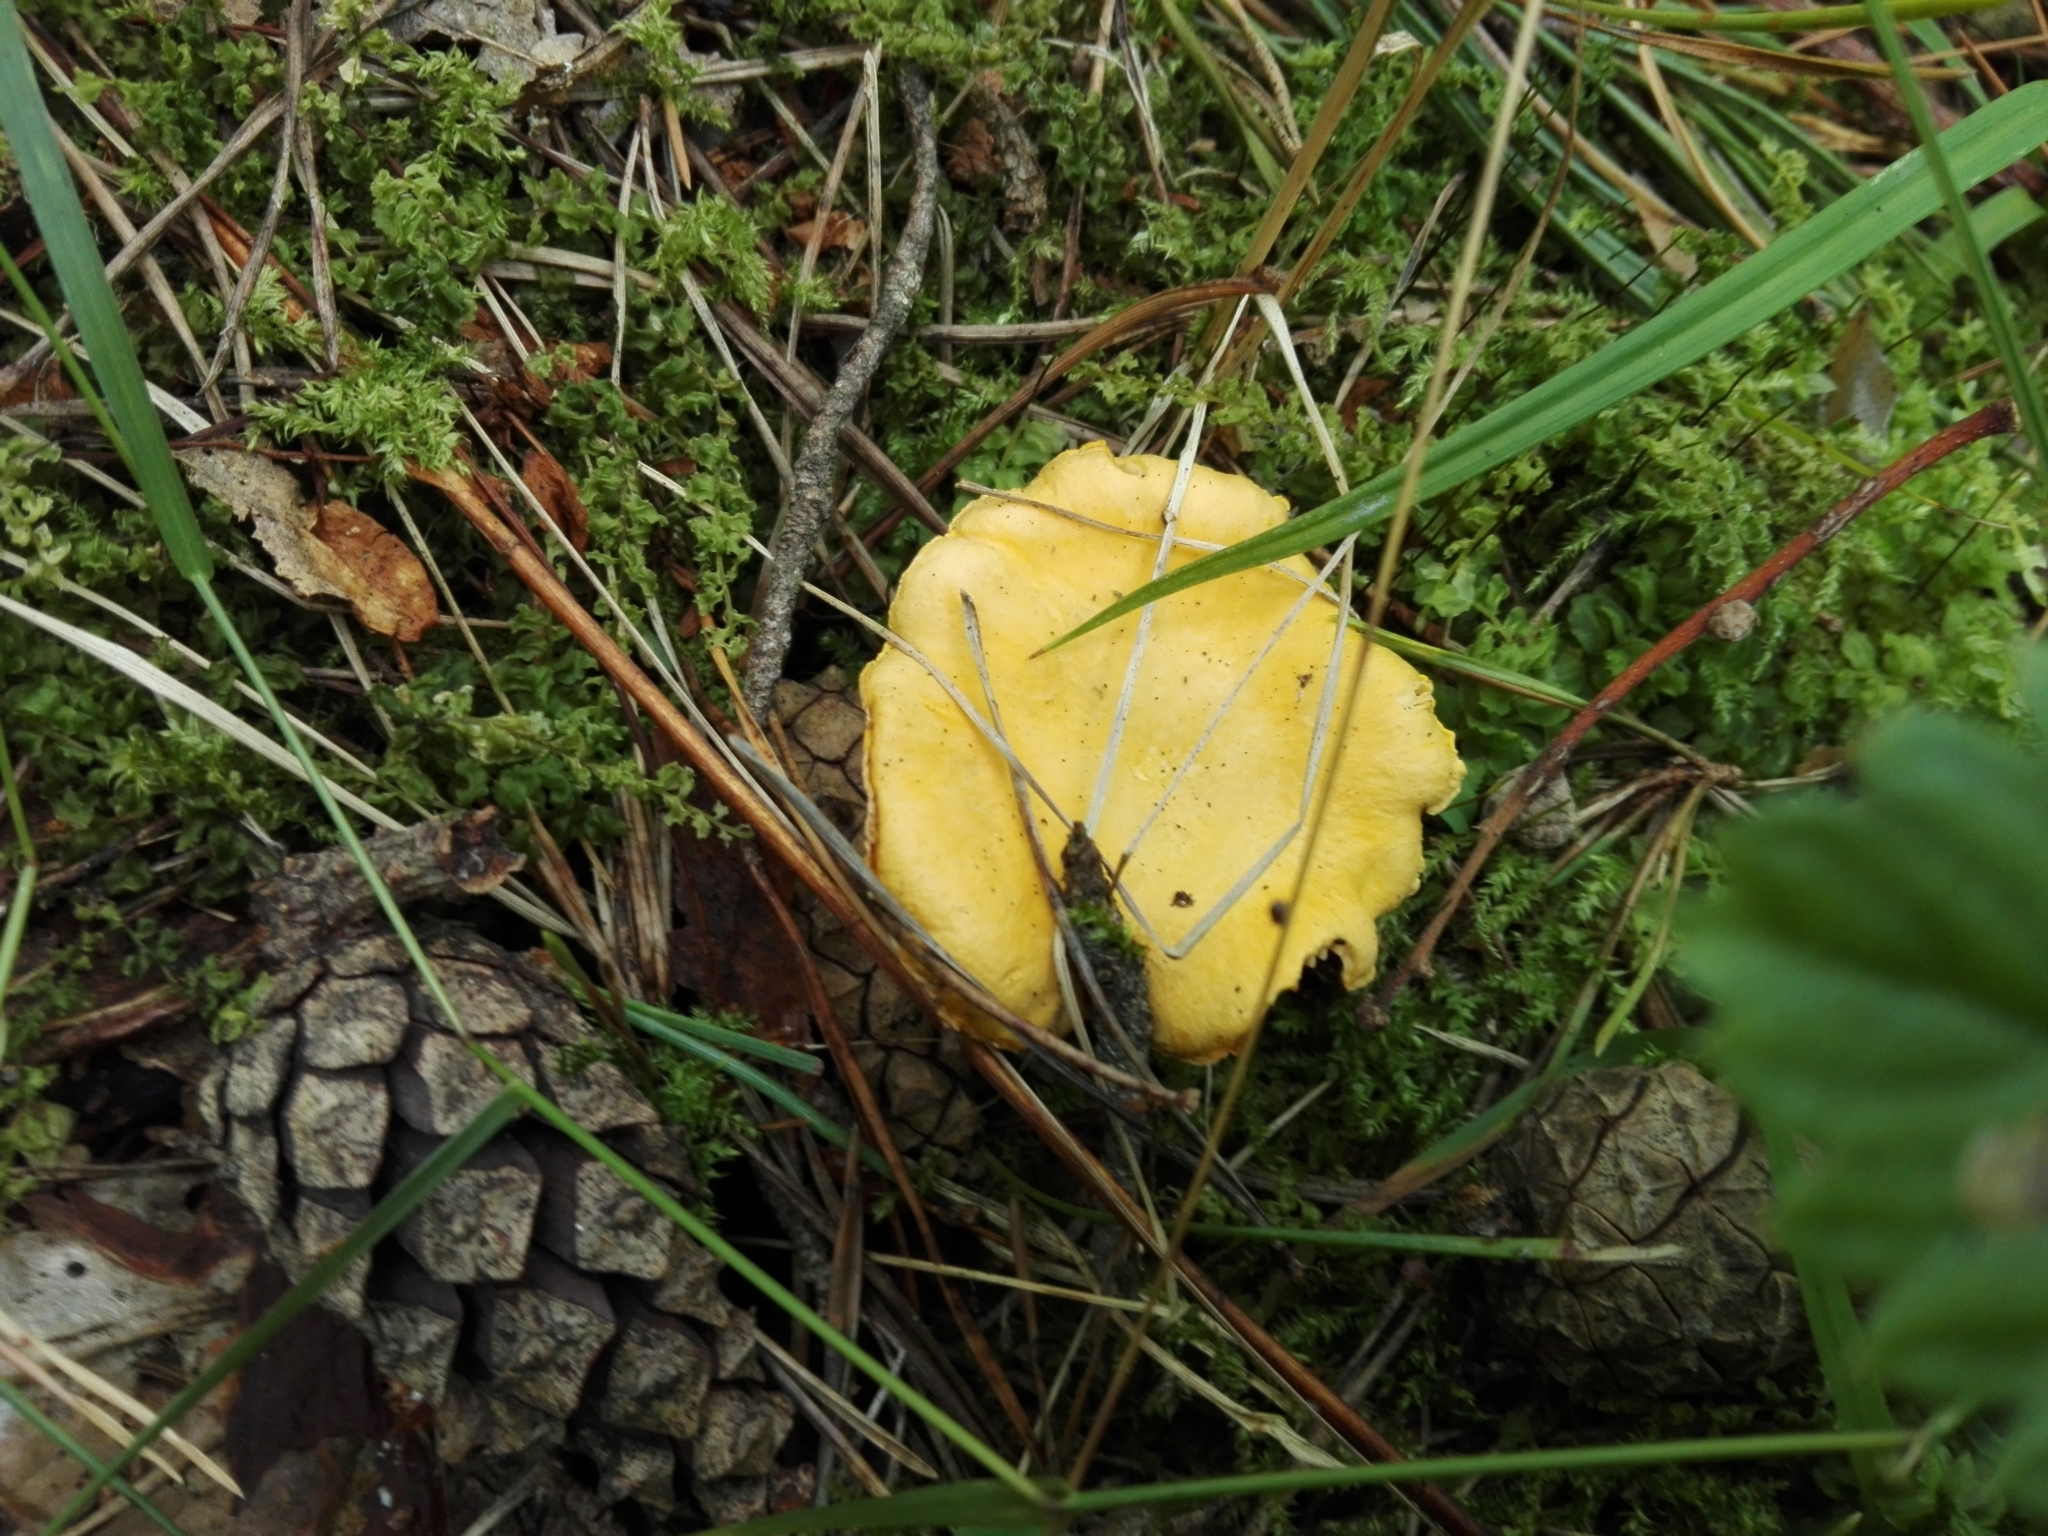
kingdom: Fungi
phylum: Basidiomycota
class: Agaricomycetes
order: Cantharellales
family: Hydnaceae
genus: Cantharellus
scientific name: Cantharellus cibarius
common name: Chanterelle
